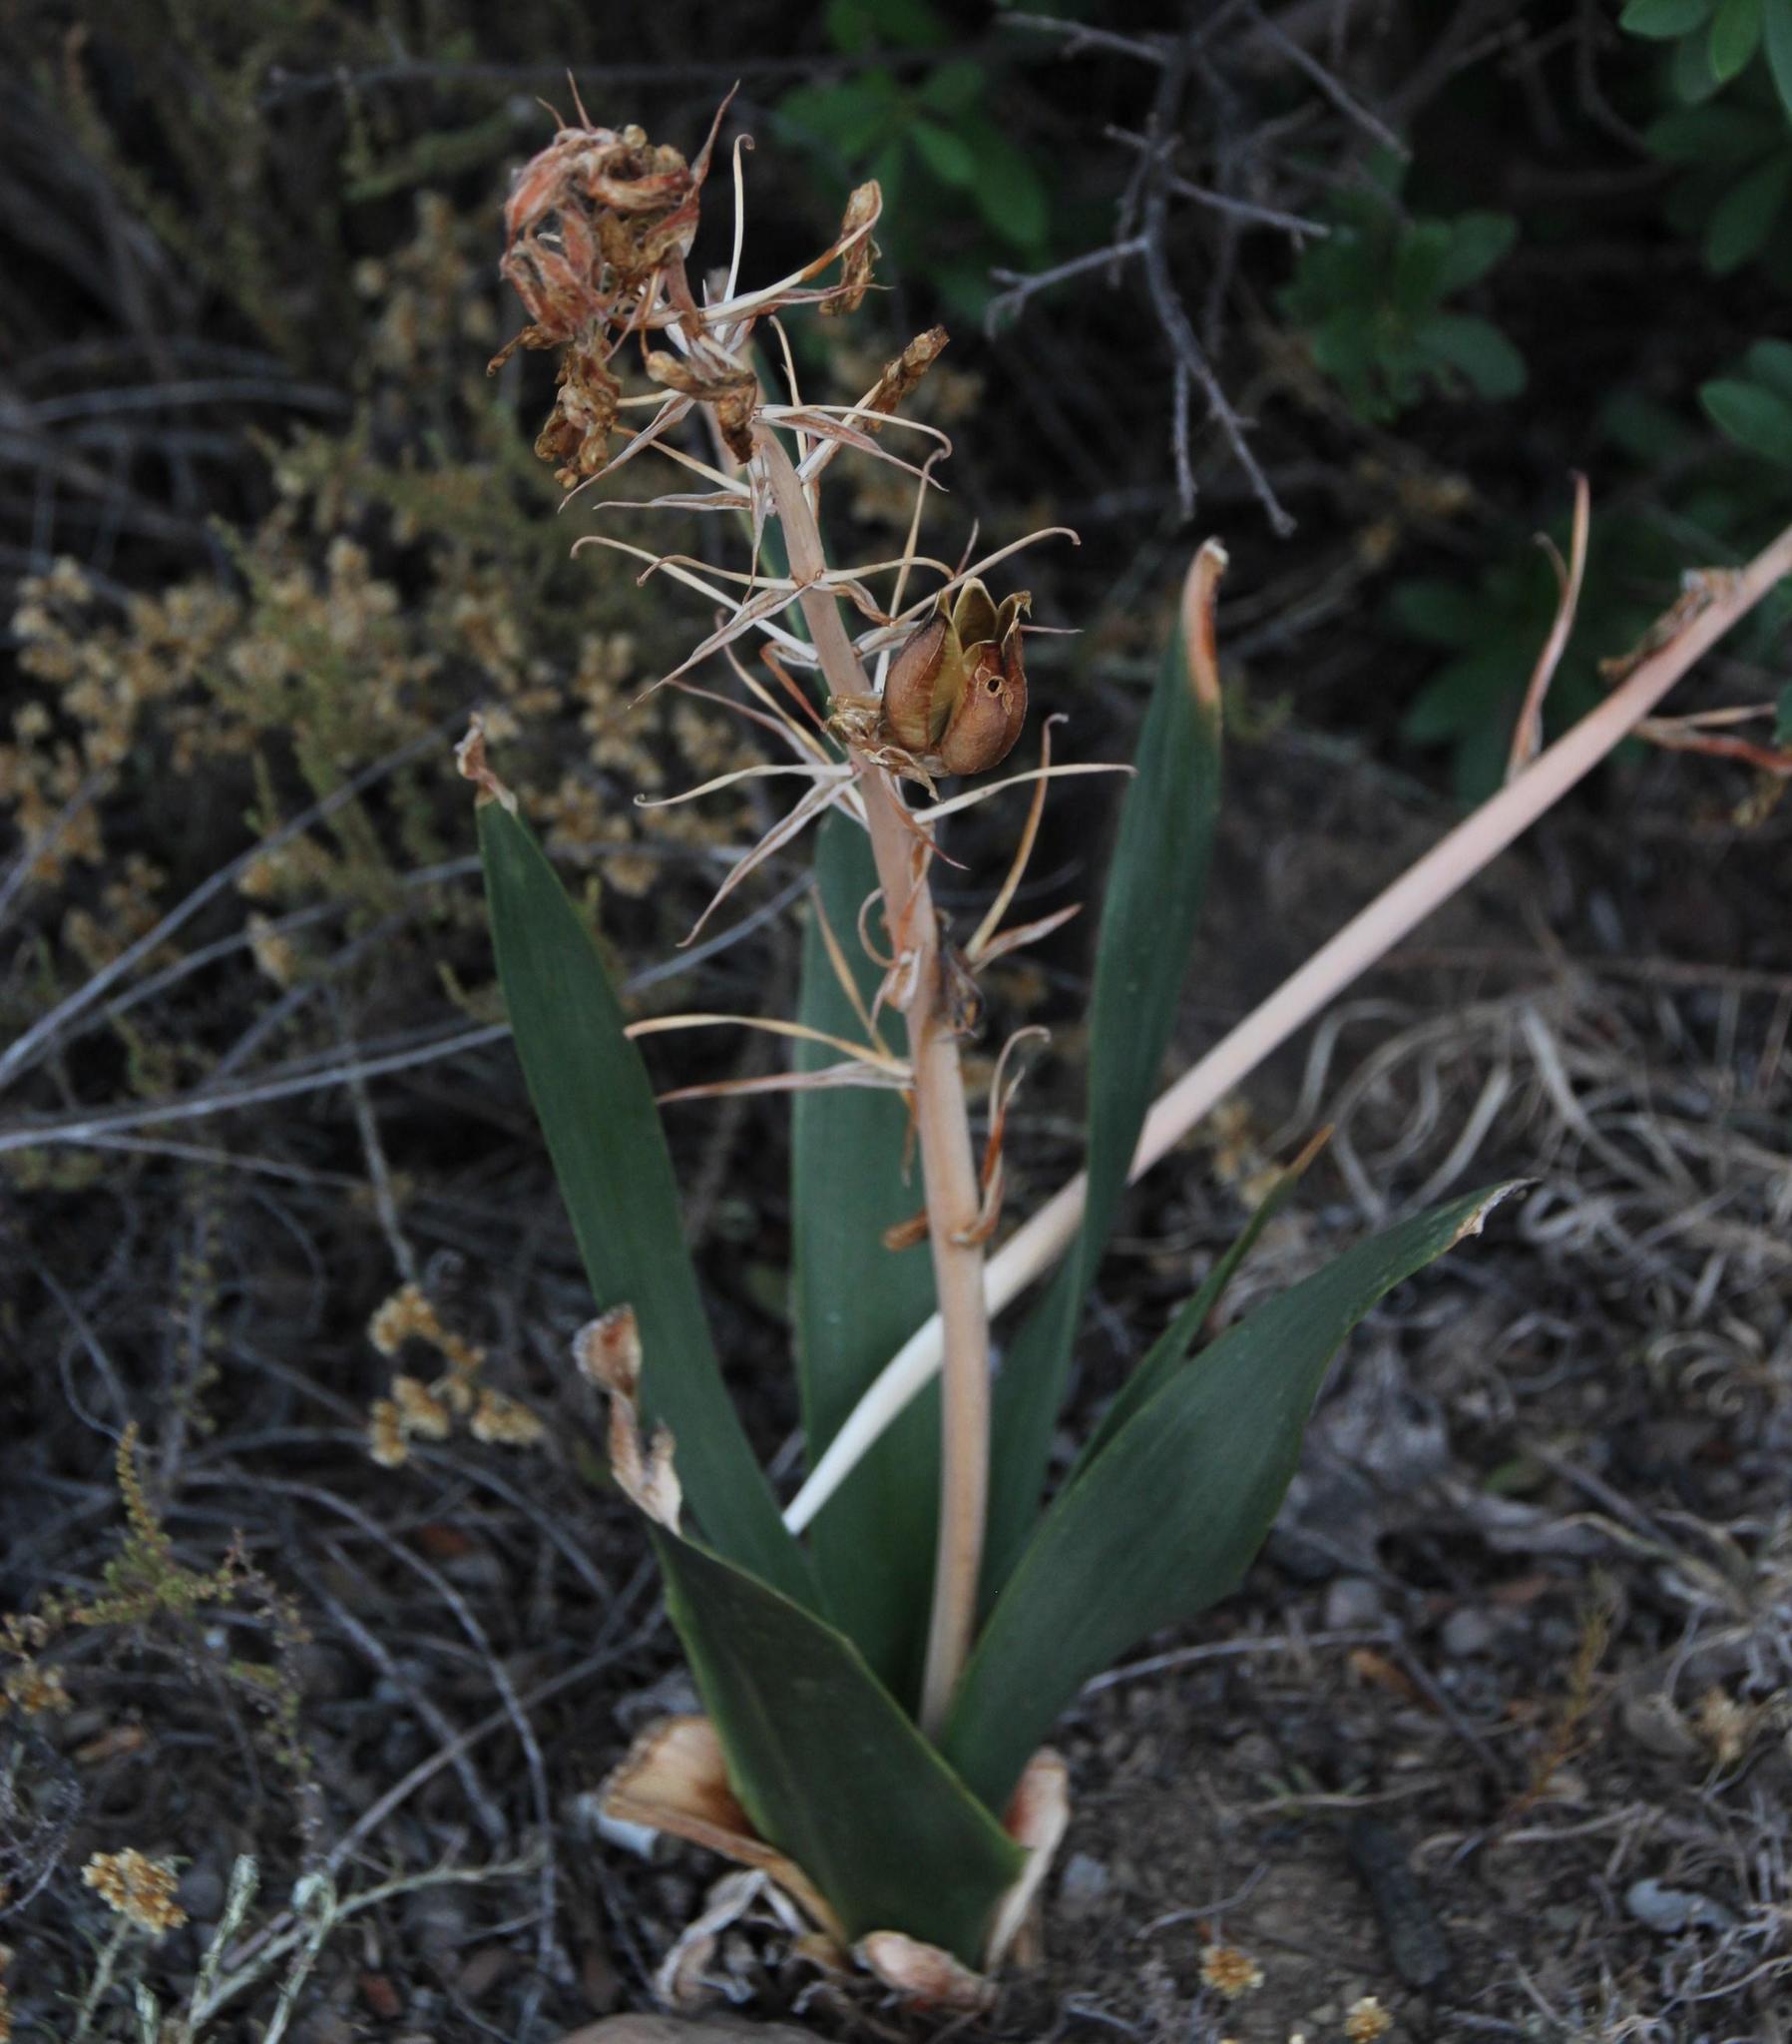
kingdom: Plantae
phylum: Tracheophyta
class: Liliopsida
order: Asparagales
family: Asparagaceae
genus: Albuca
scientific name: Albuca setosa
